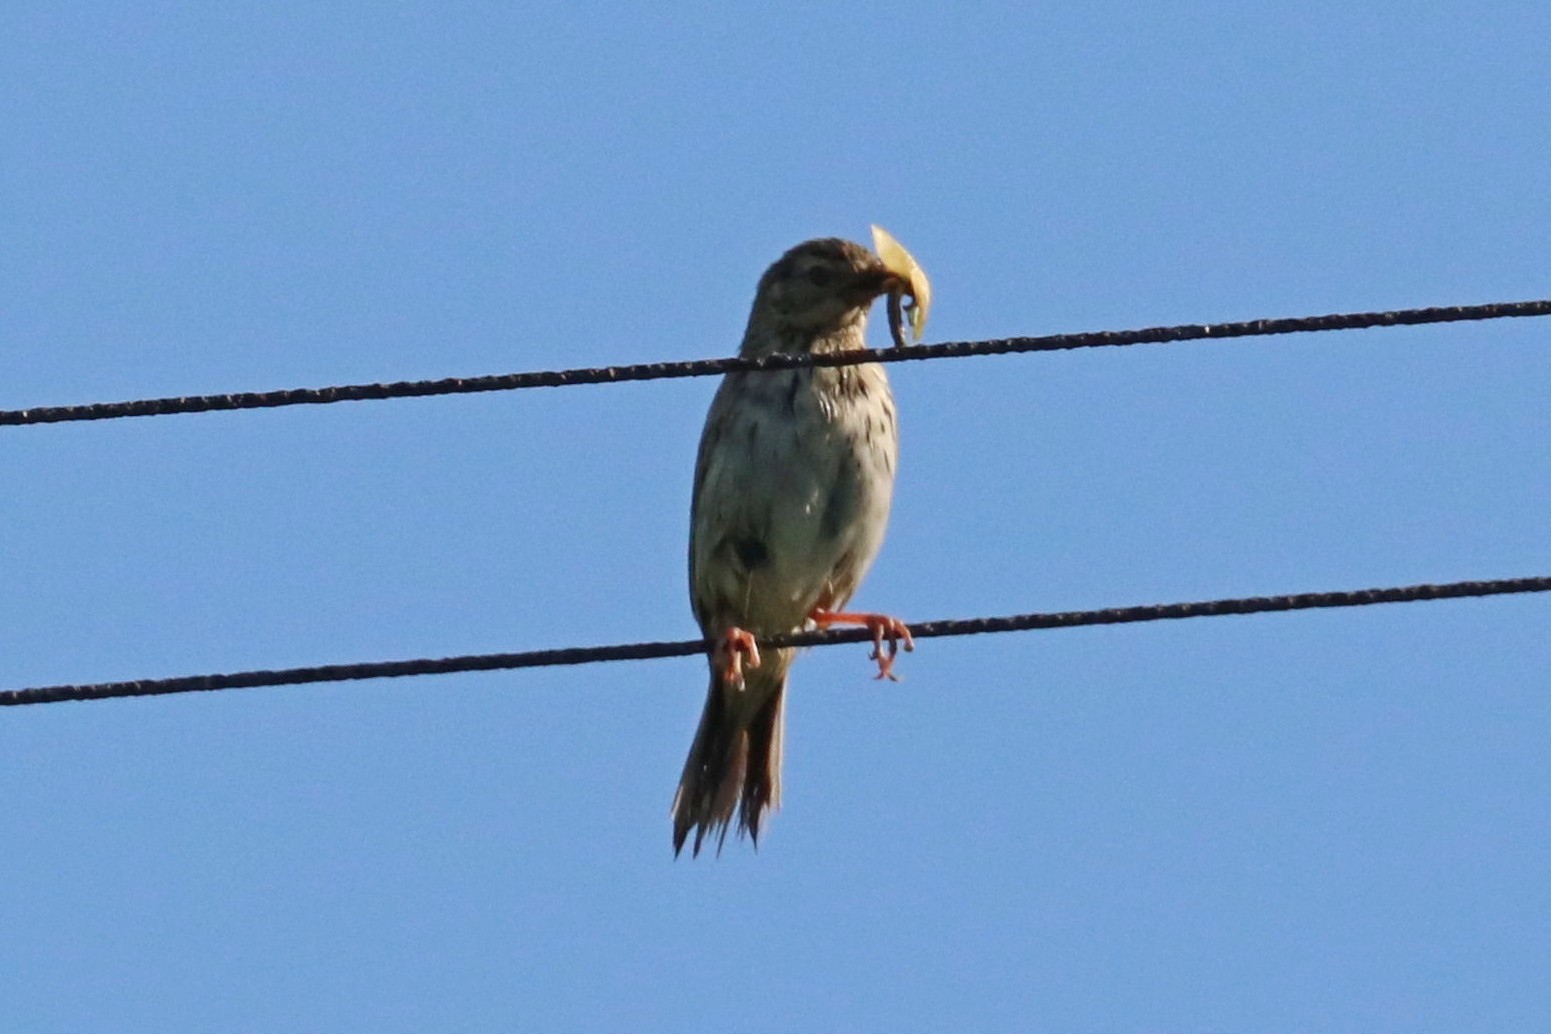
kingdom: Animalia
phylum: Chordata
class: Aves
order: Passeriformes
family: Motacillidae
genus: Anthus
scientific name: Anthus trivialis
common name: Tree pipit
